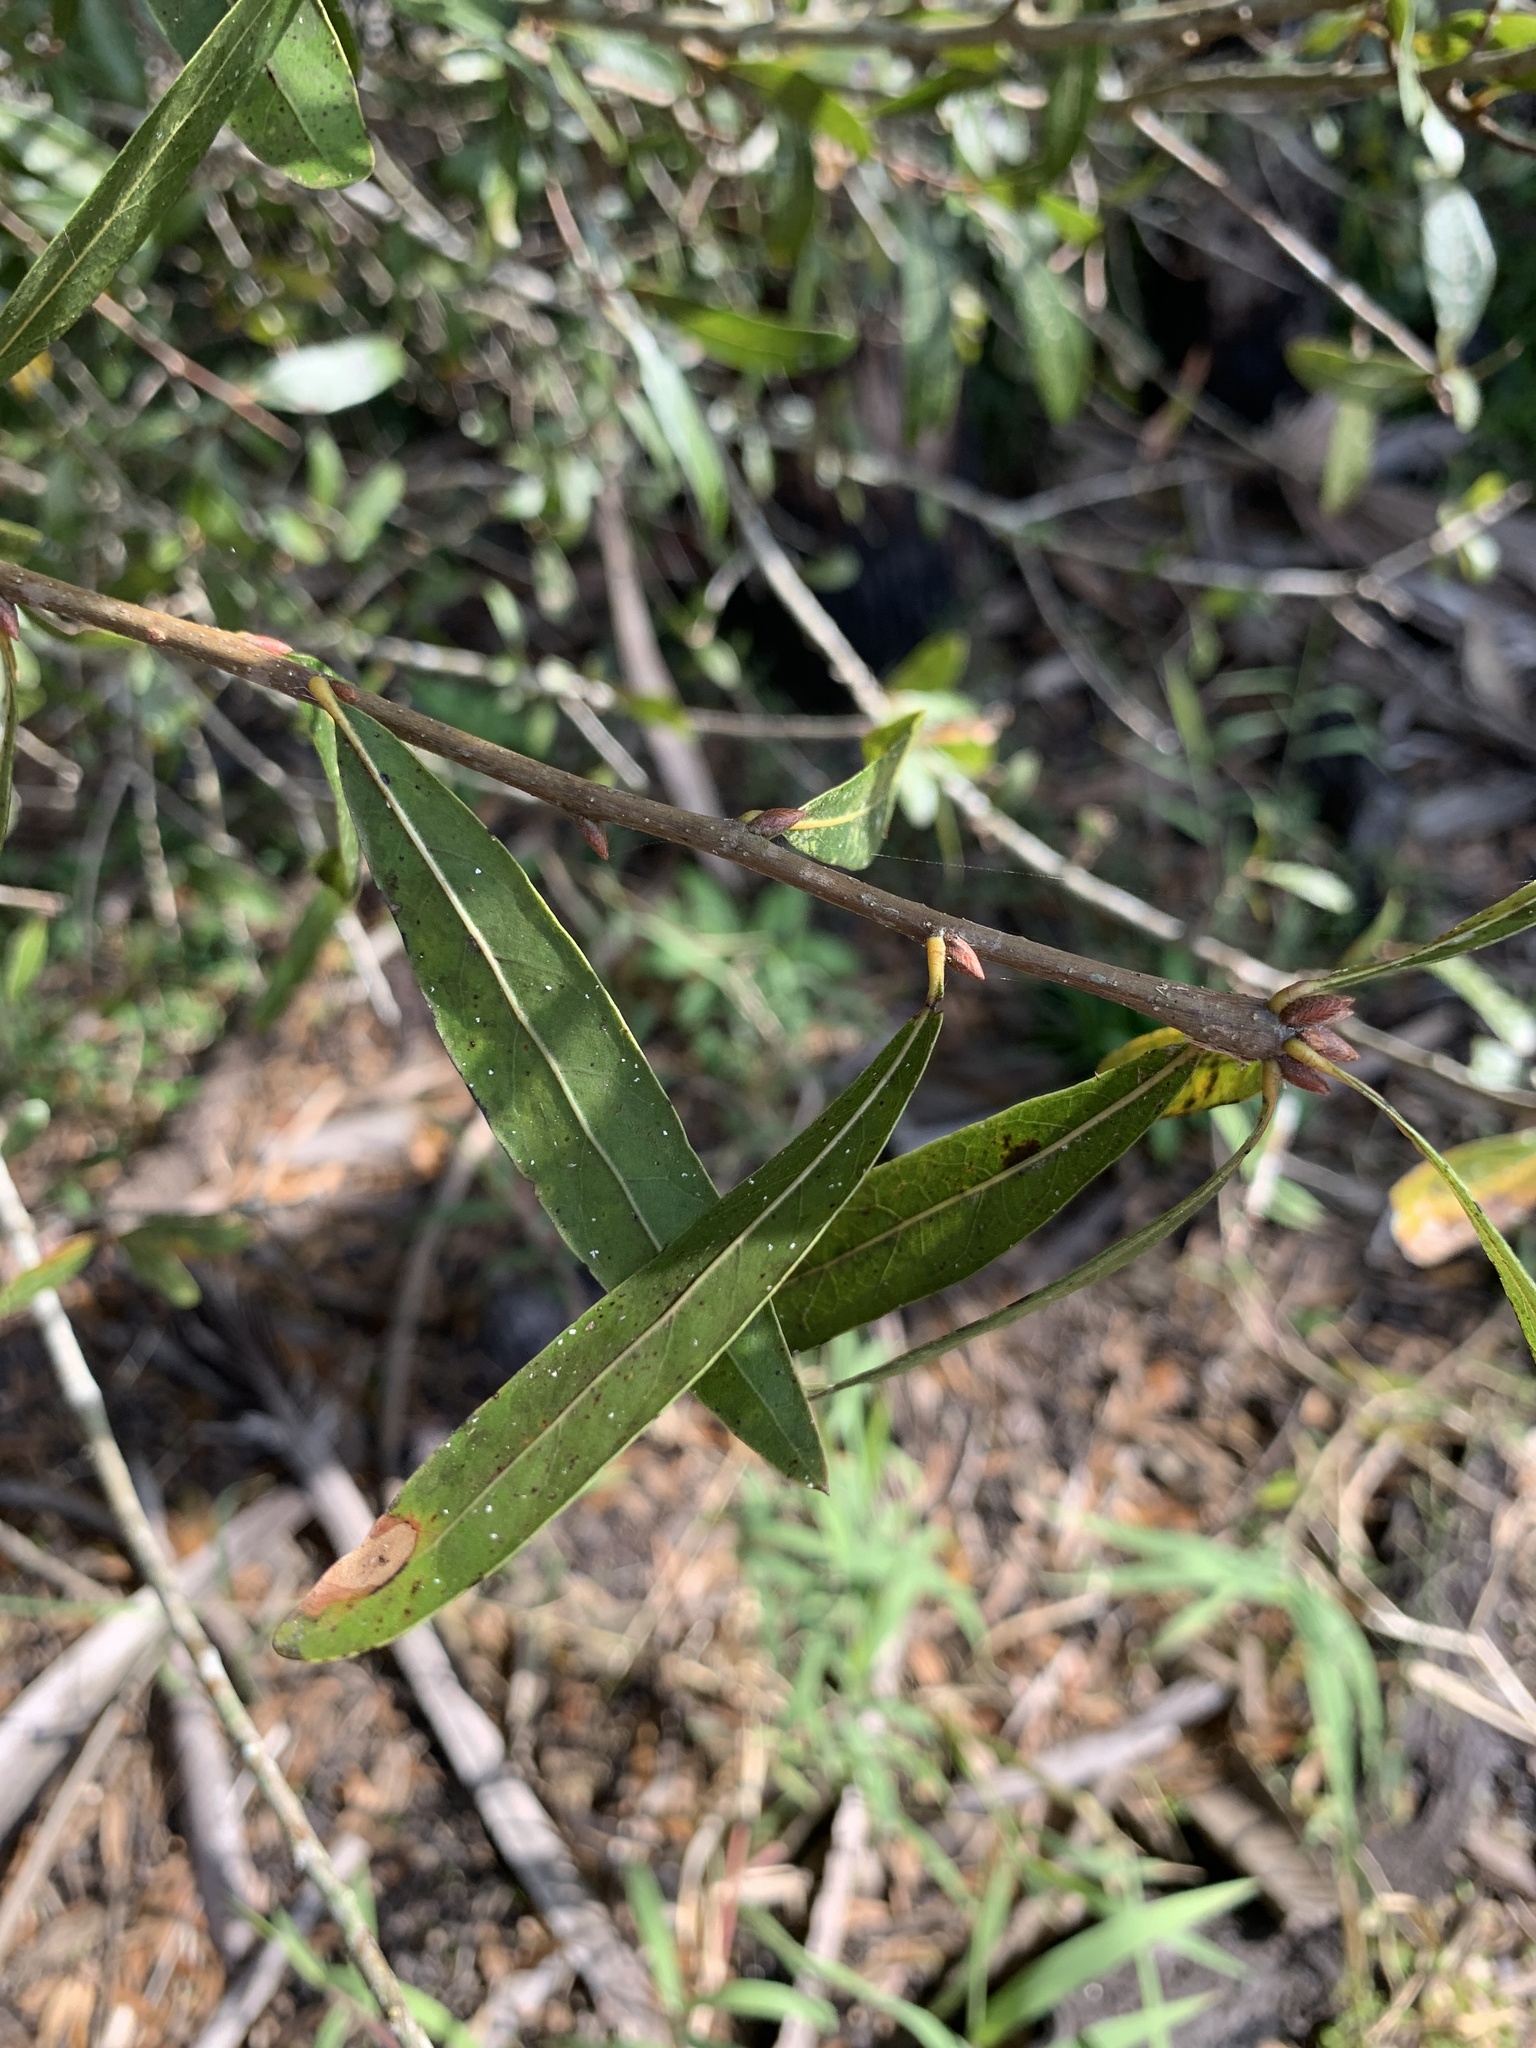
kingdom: Plantae
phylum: Tracheophyta
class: Magnoliopsida
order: Fagales
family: Fagaceae
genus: Quercus
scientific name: Quercus laurifolia
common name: Swamp laurel oak
